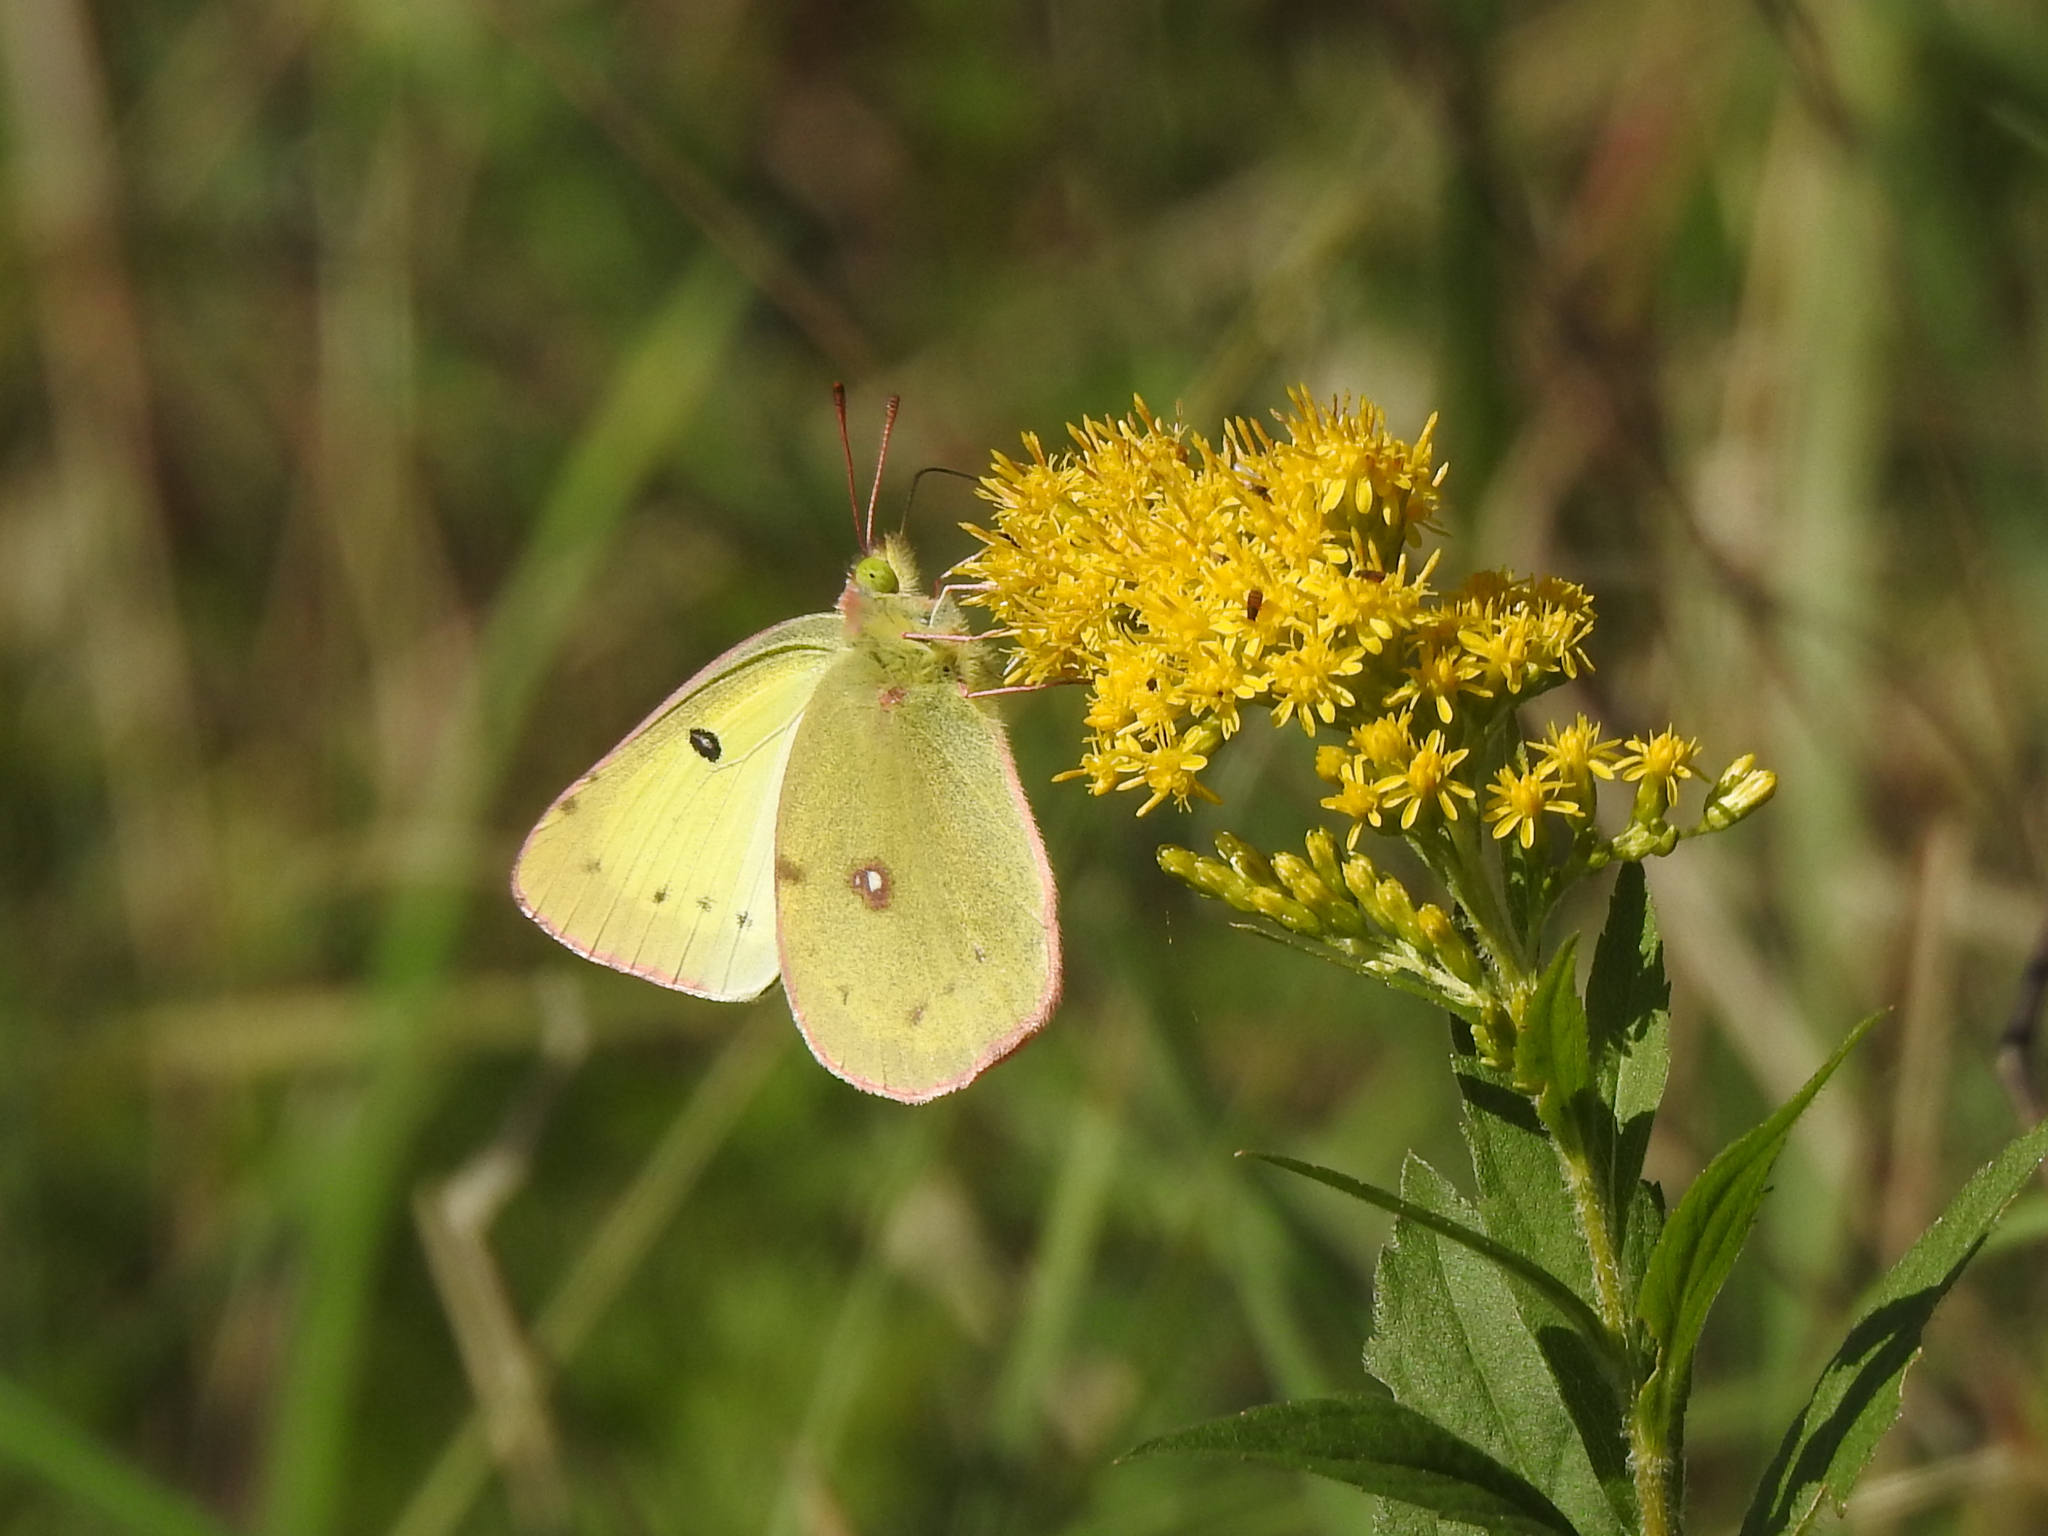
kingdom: Animalia
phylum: Arthropoda
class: Insecta
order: Lepidoptera
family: Pieridae
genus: Colias
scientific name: Colias philodice
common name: Clouded sulphur
